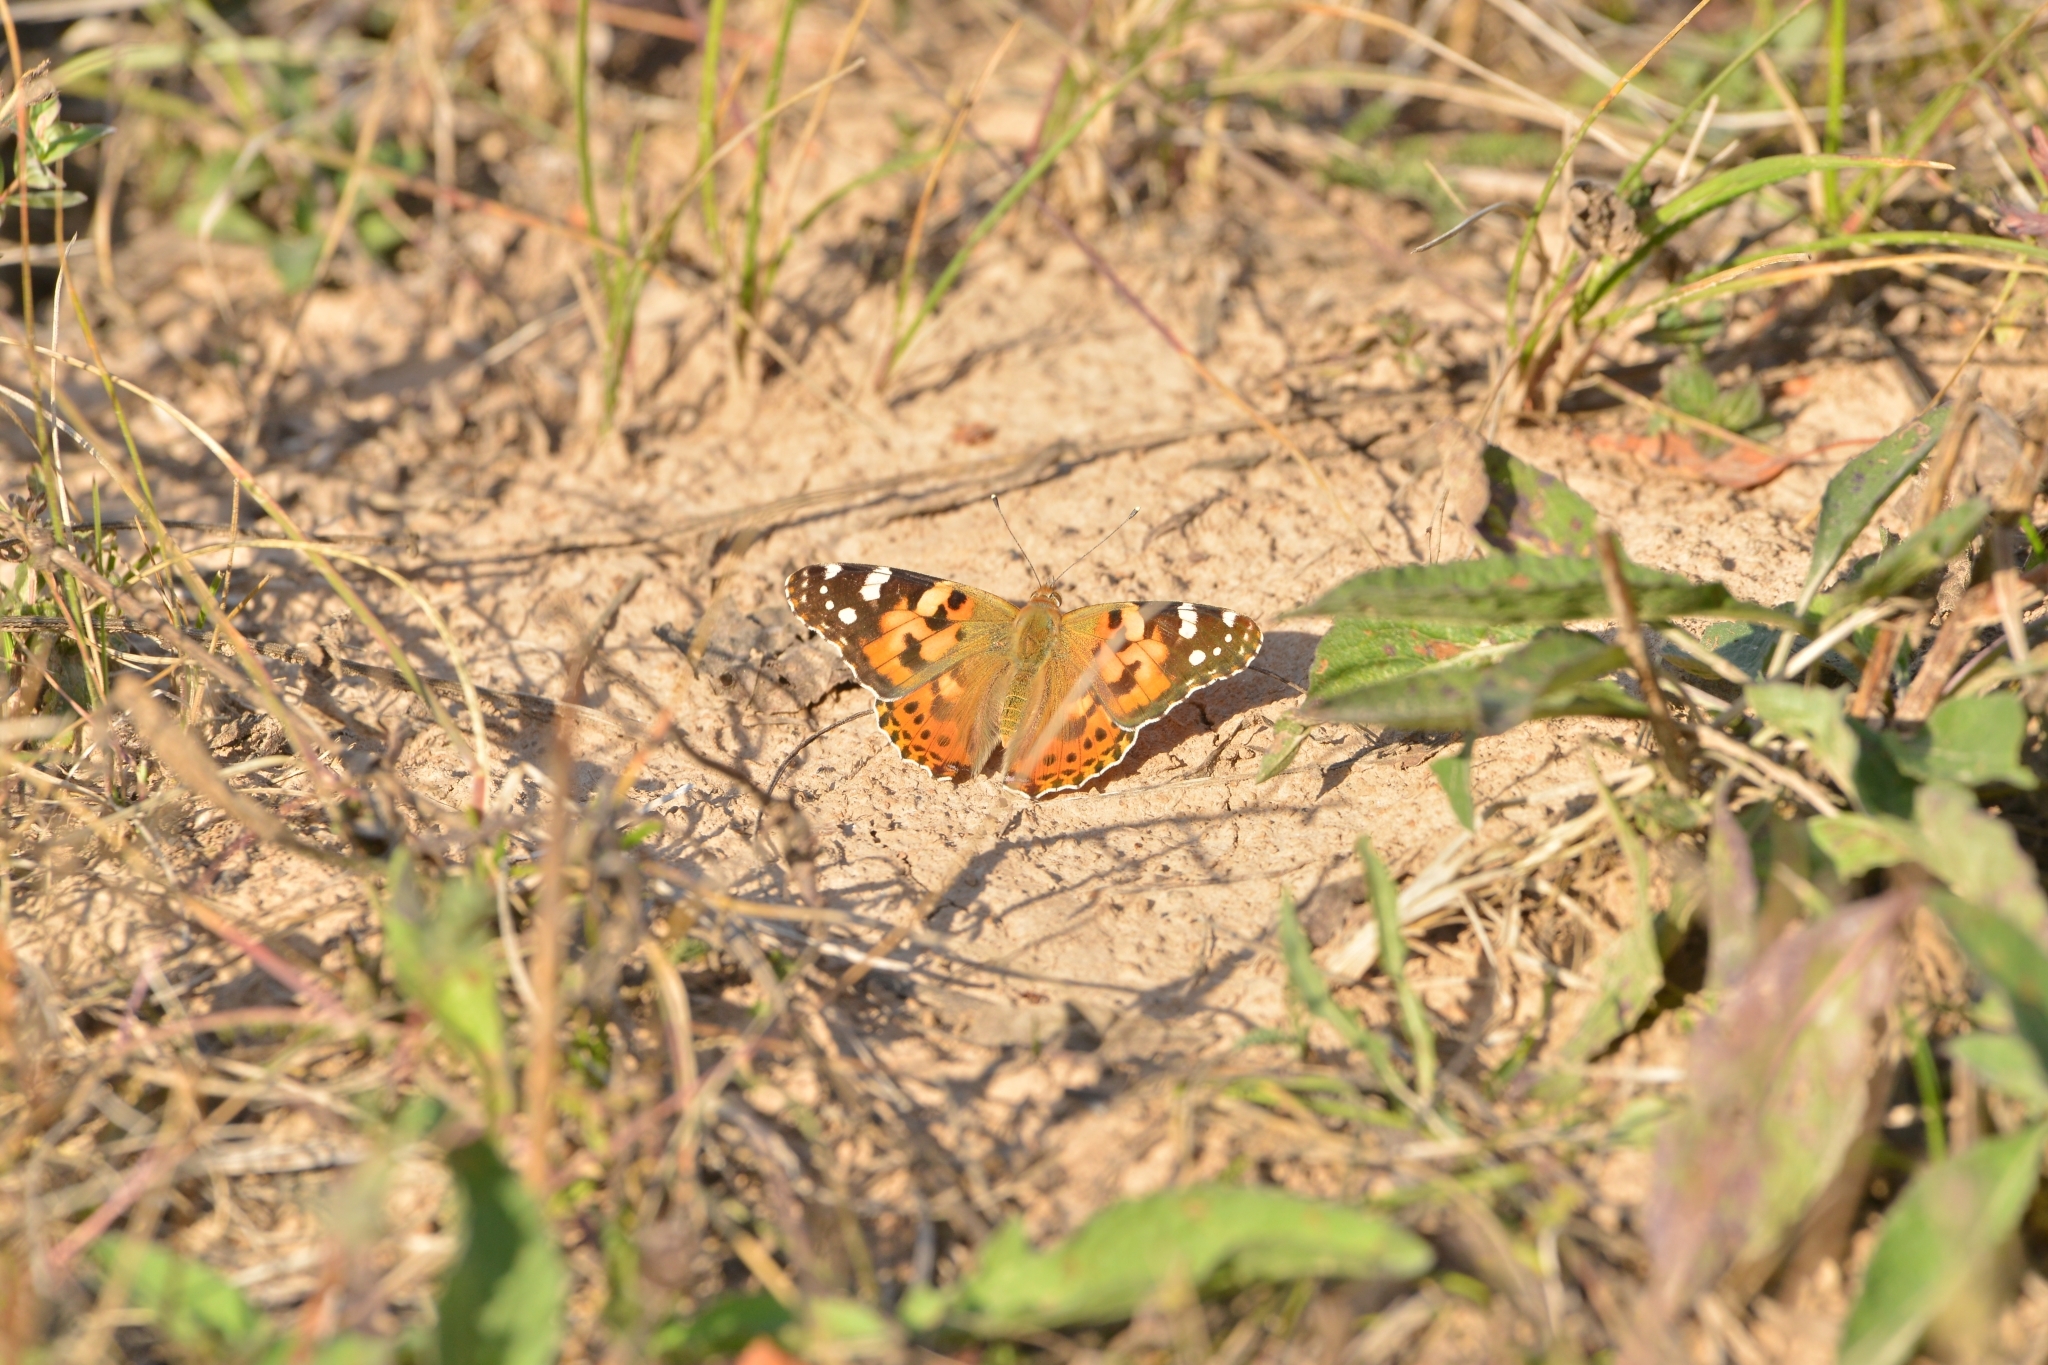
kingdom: Animalia
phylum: Arthropoda
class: Insecta
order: Lepidoptera
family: Nymphalidae
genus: Vanessa
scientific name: Vanessa cardui
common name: Painted lady
